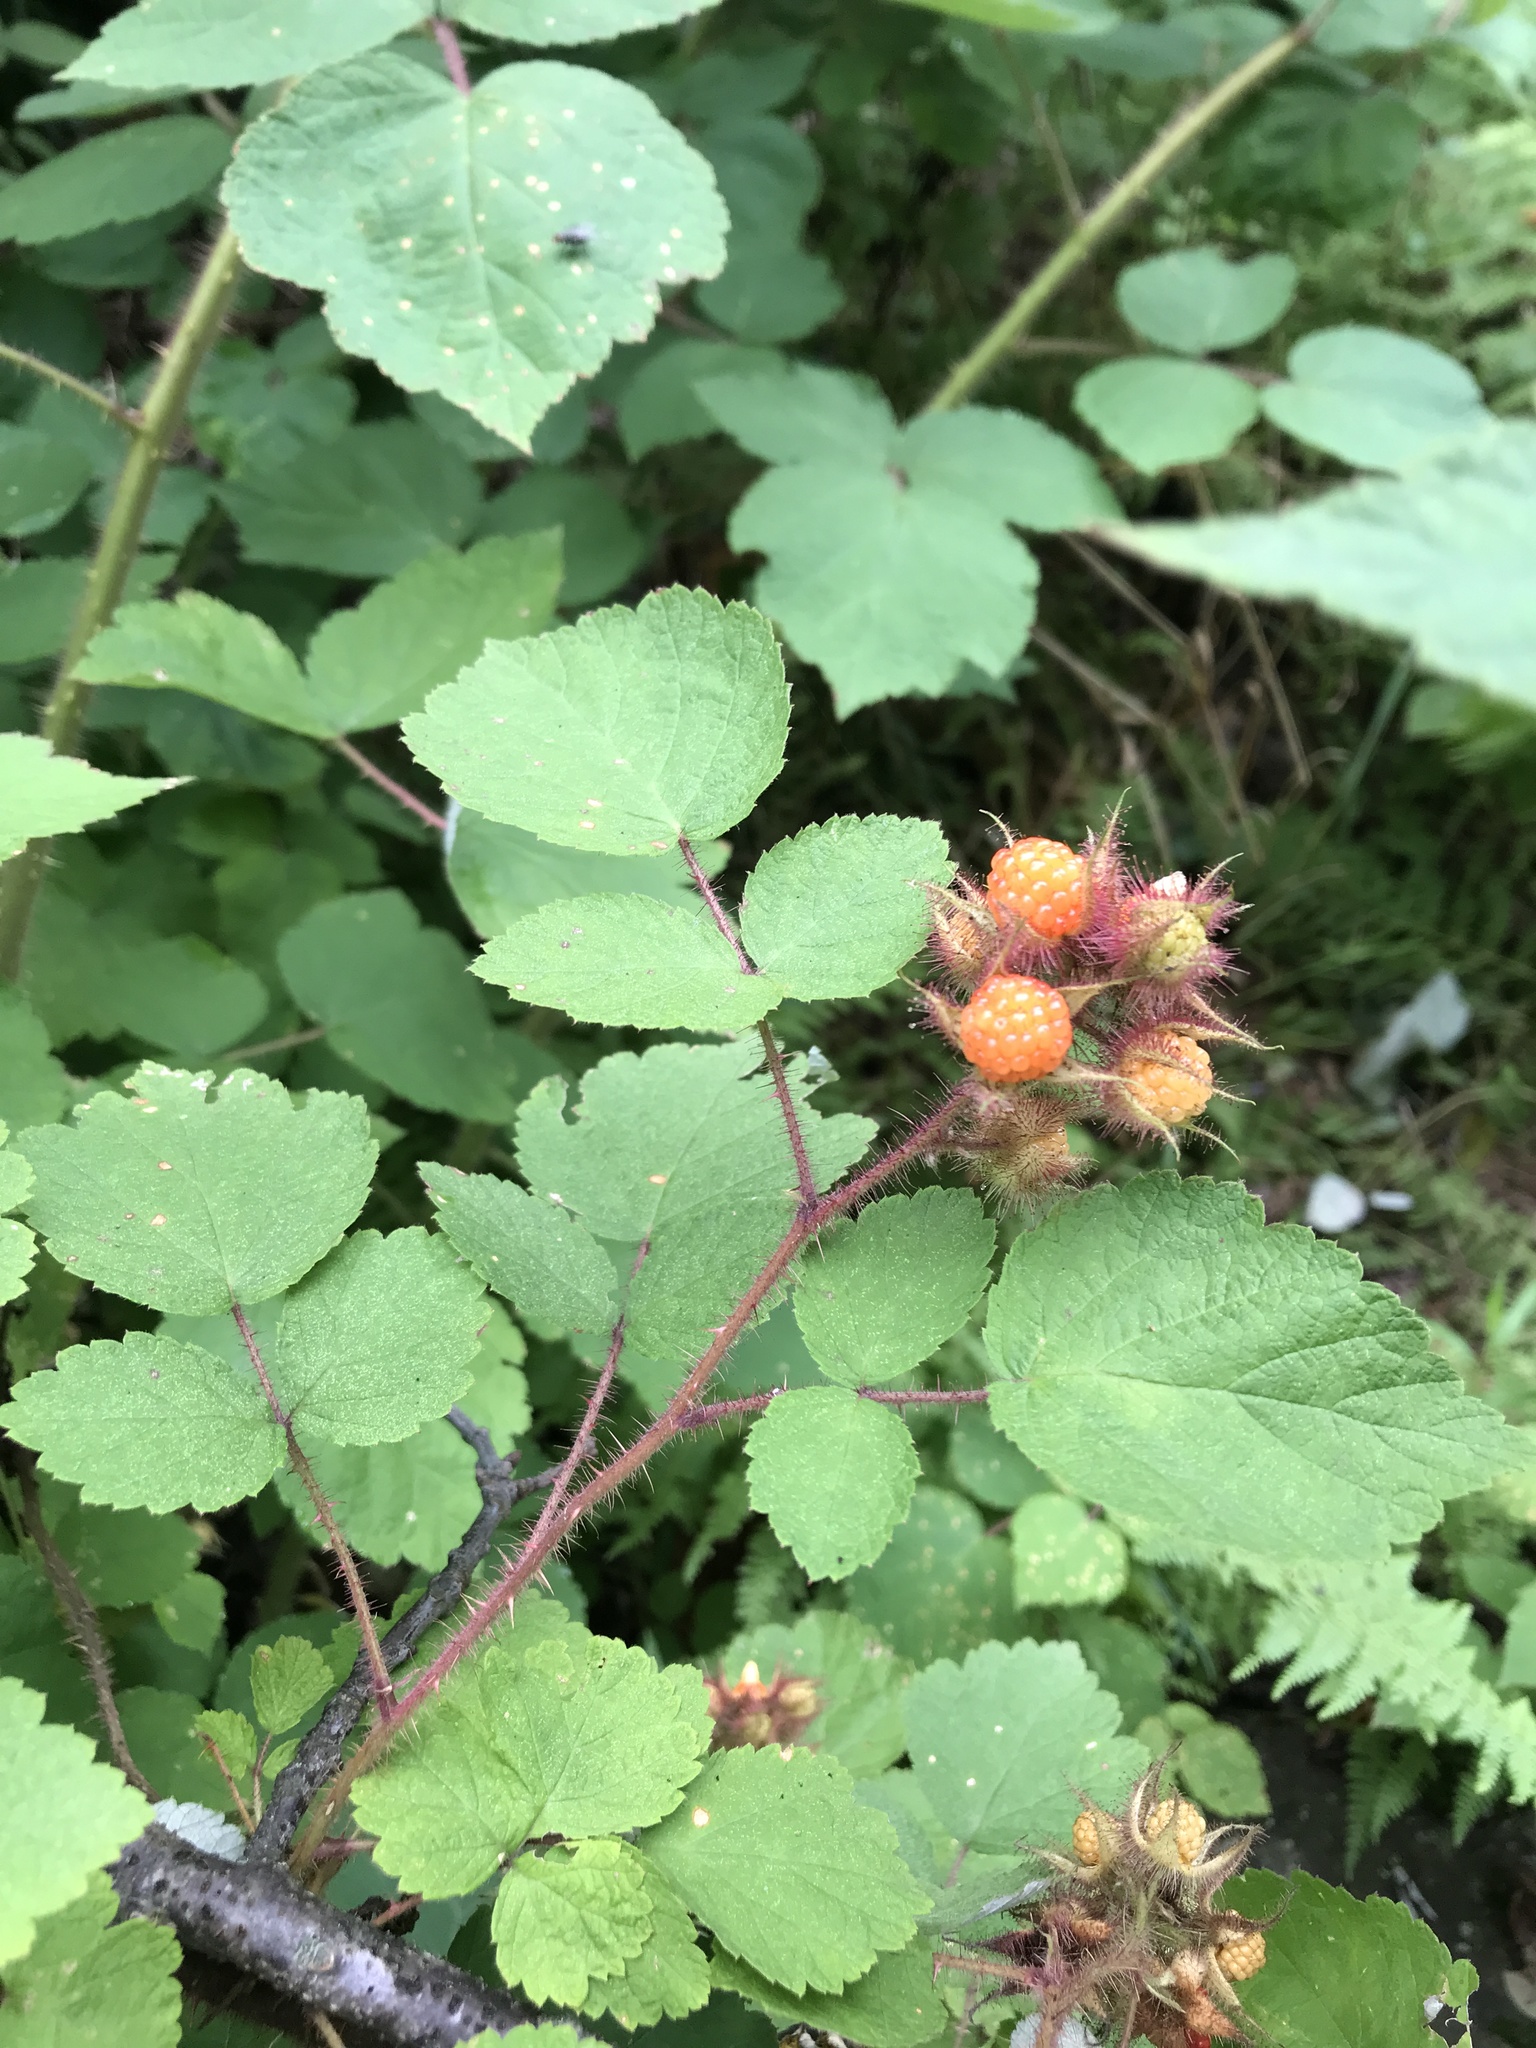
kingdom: Plantae
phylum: Tracheophyta
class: Magnoliopsida
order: Rosales
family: Rosaceae
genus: Rubus
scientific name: Rubus phoenicolasius
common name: Japanese wineberry
